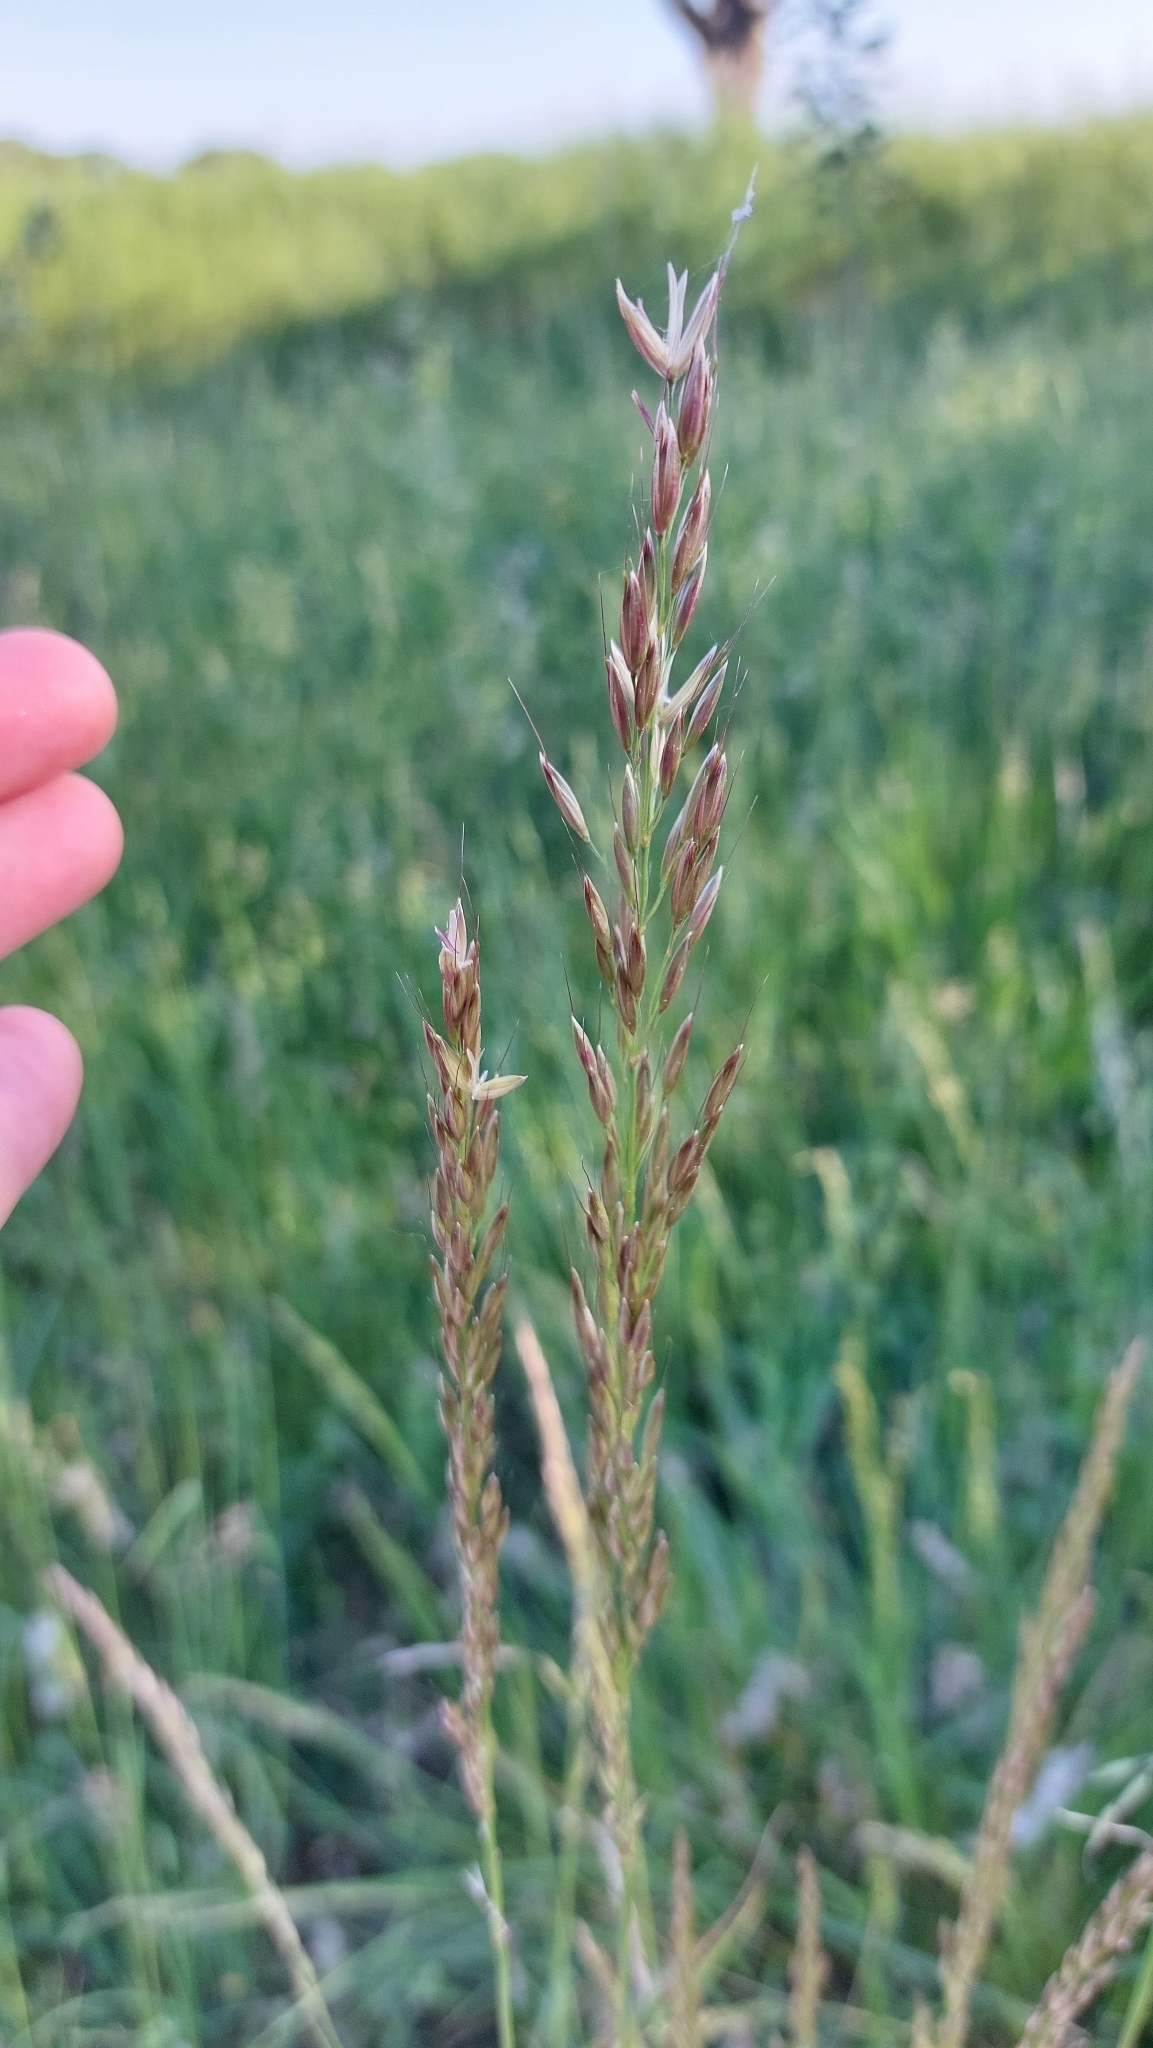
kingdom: Plantae
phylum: Tracheophyta
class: Liliopsida
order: Poales
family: Poaceae
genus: Arrhenatherum
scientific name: Arrhenatherum elatius
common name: Tall oatgrass
